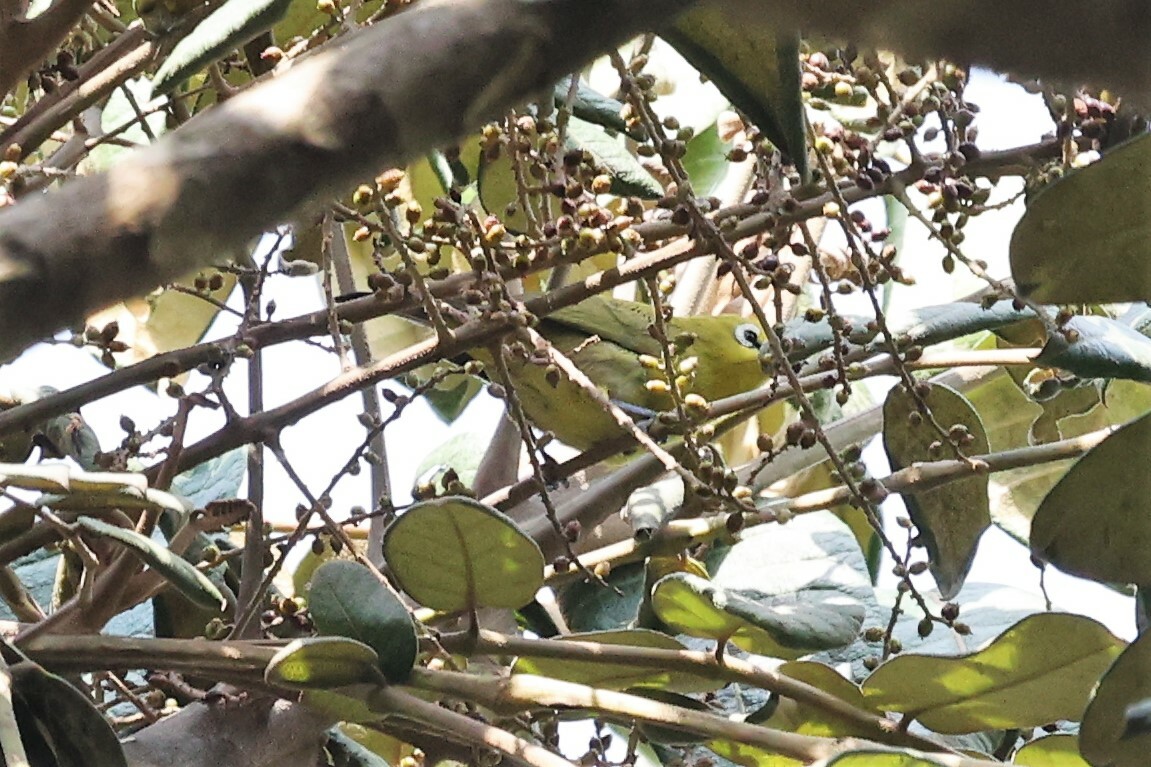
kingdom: Animalia
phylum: Chordata
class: Aves
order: Passeriformes
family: Zosteropidae
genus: Zosterops
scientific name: Zosterops stuhlmanni
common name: Green white-eye
